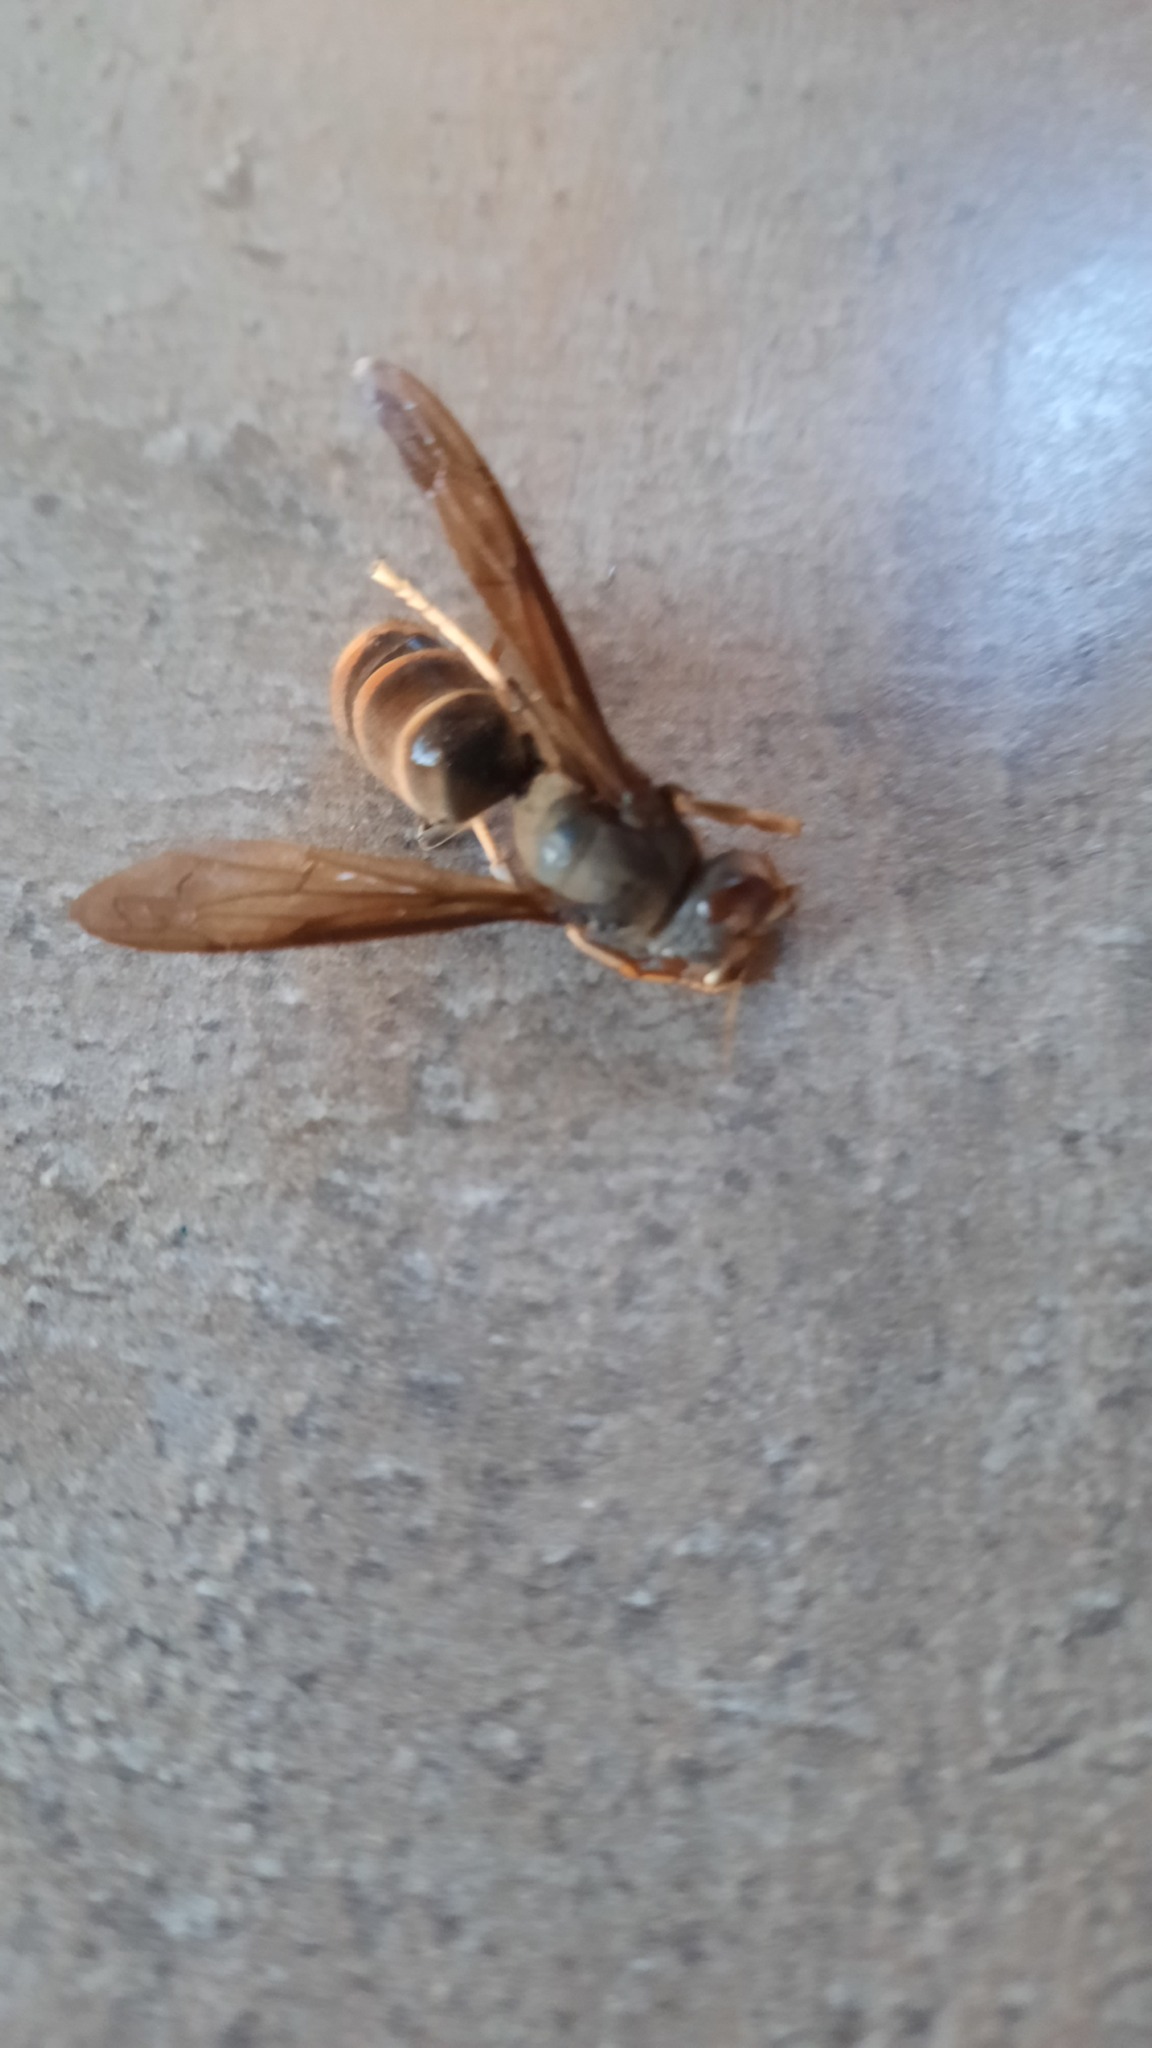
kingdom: Animalia
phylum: Arthropoda
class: Insecta
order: Hymenoptera
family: Vespidae
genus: Vespa
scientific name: Vespa velutina
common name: Asian hornet
